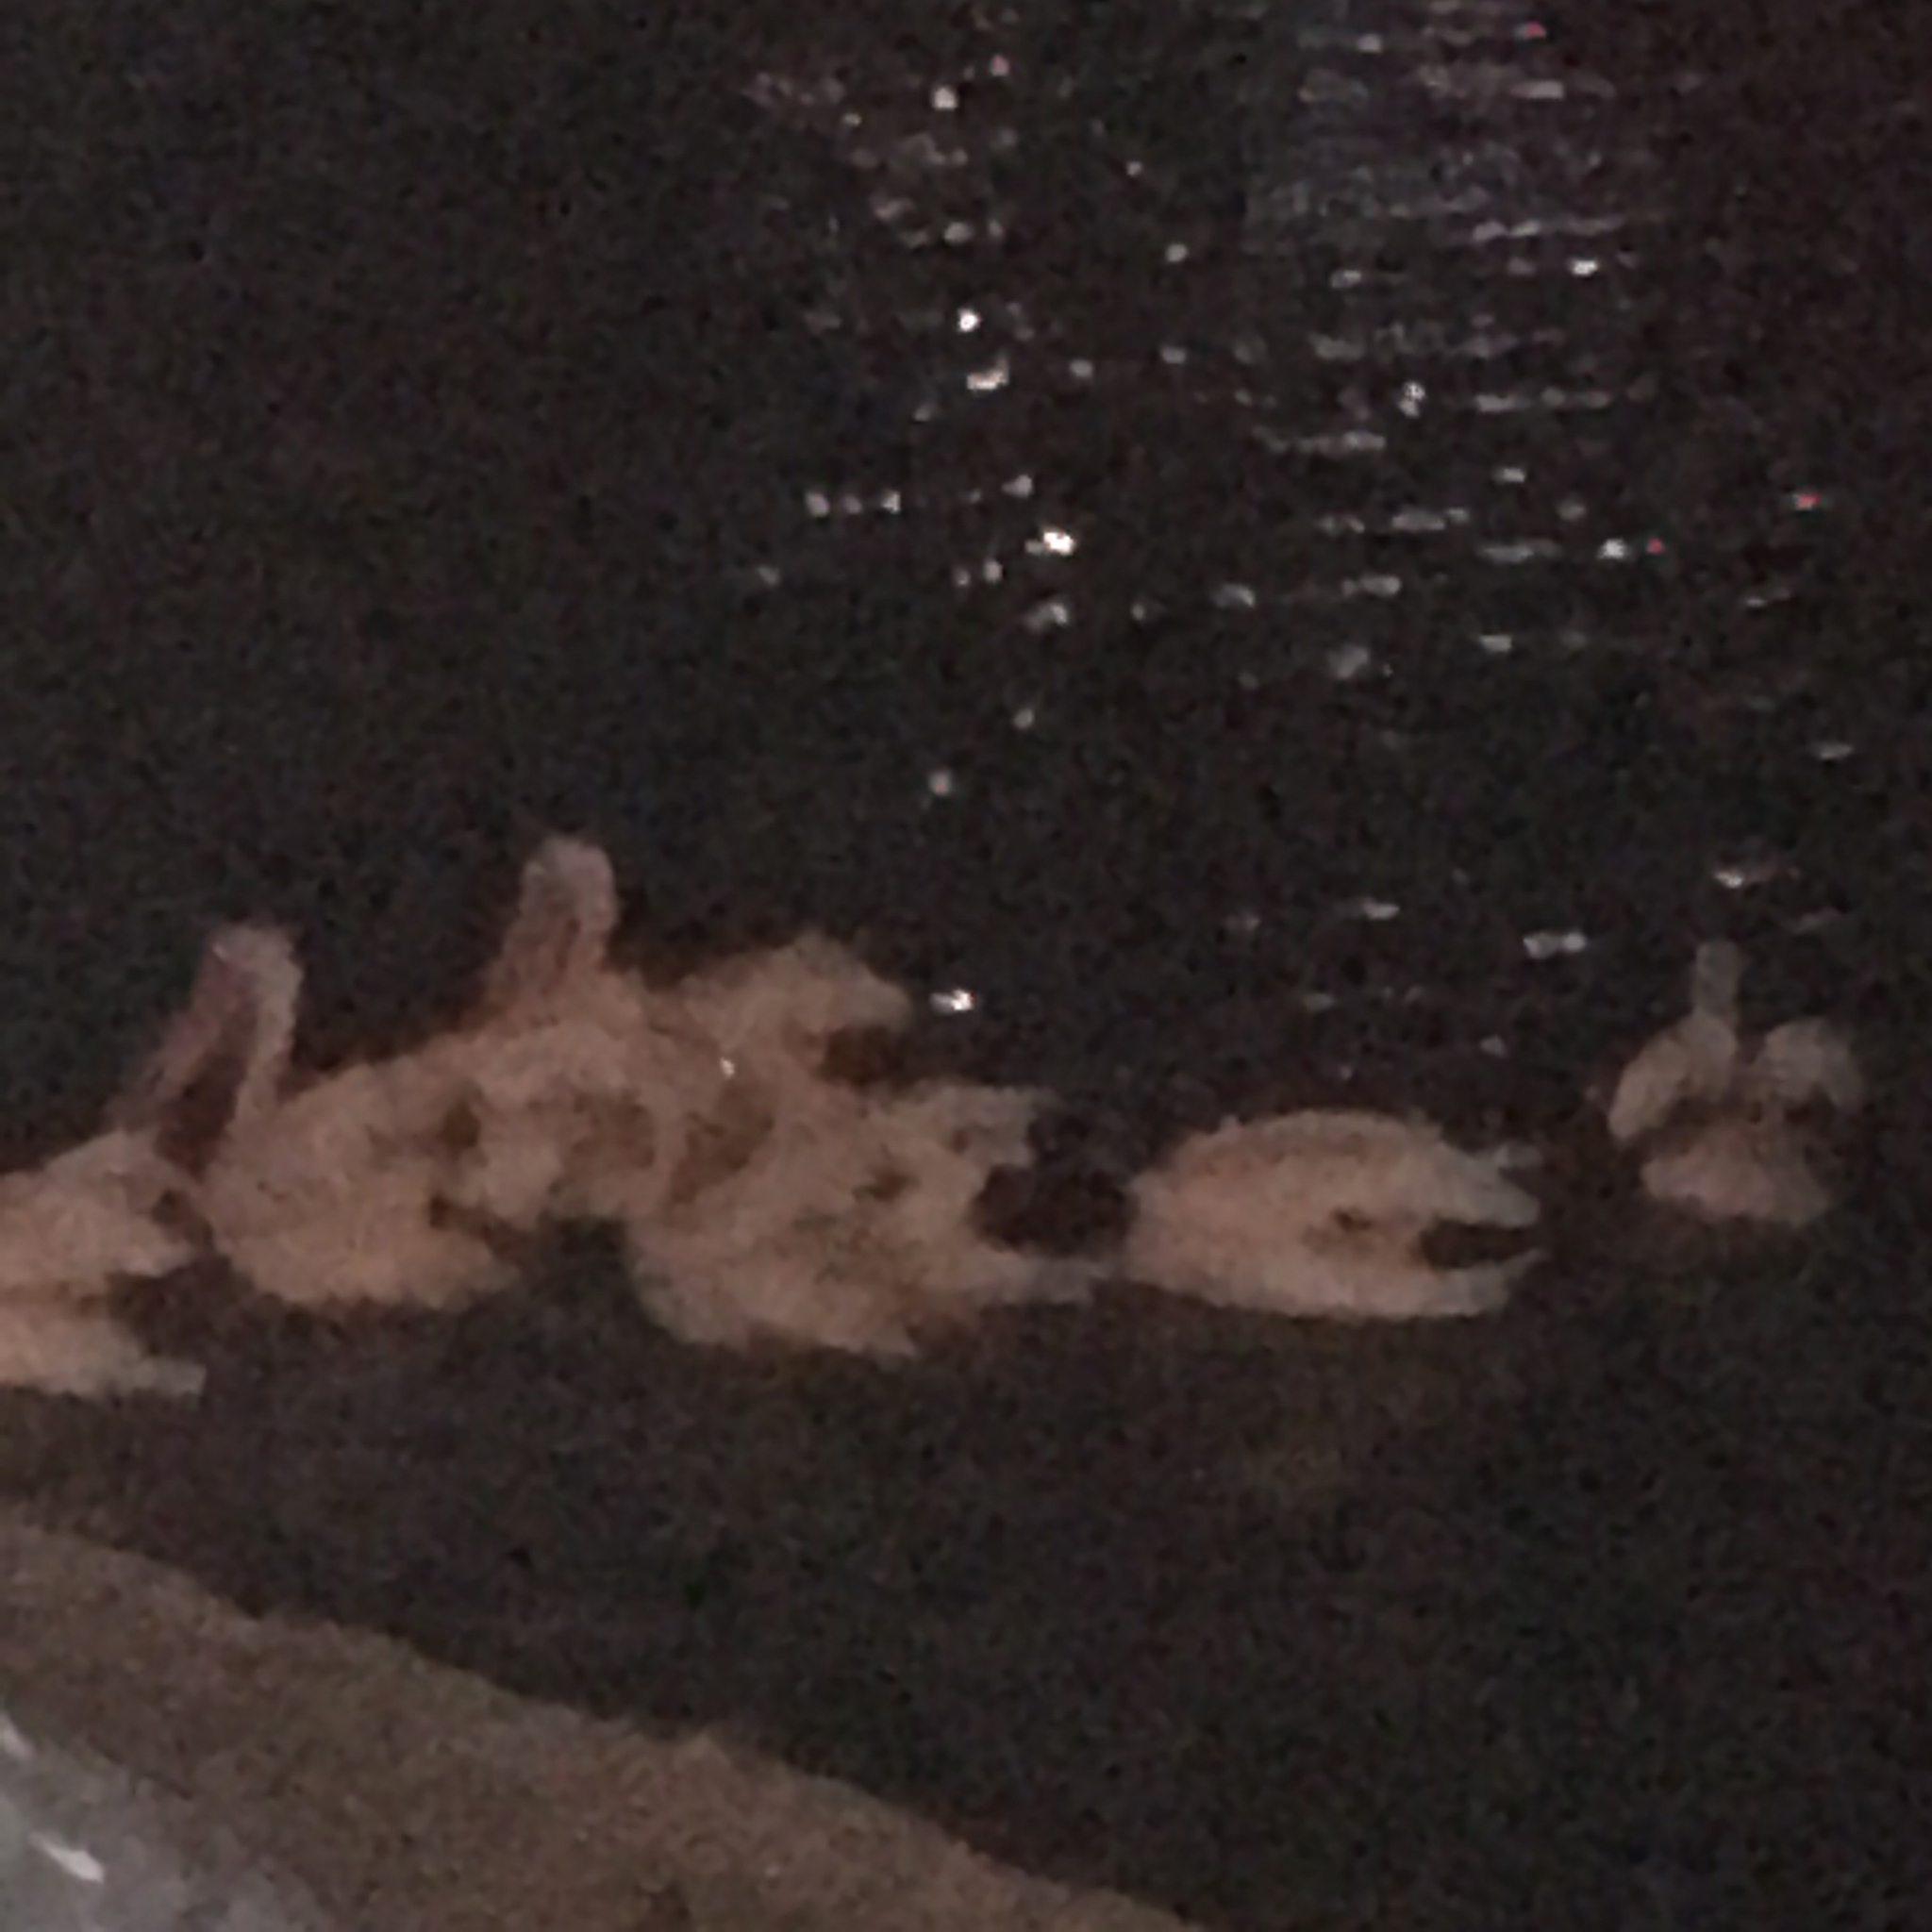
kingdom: Animalia
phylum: Chordata
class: Aves
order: Pelecaniformes
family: Pelecanidae
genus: Pelecanus
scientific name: Pelecanus erythrorhynchos
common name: American white pelican
